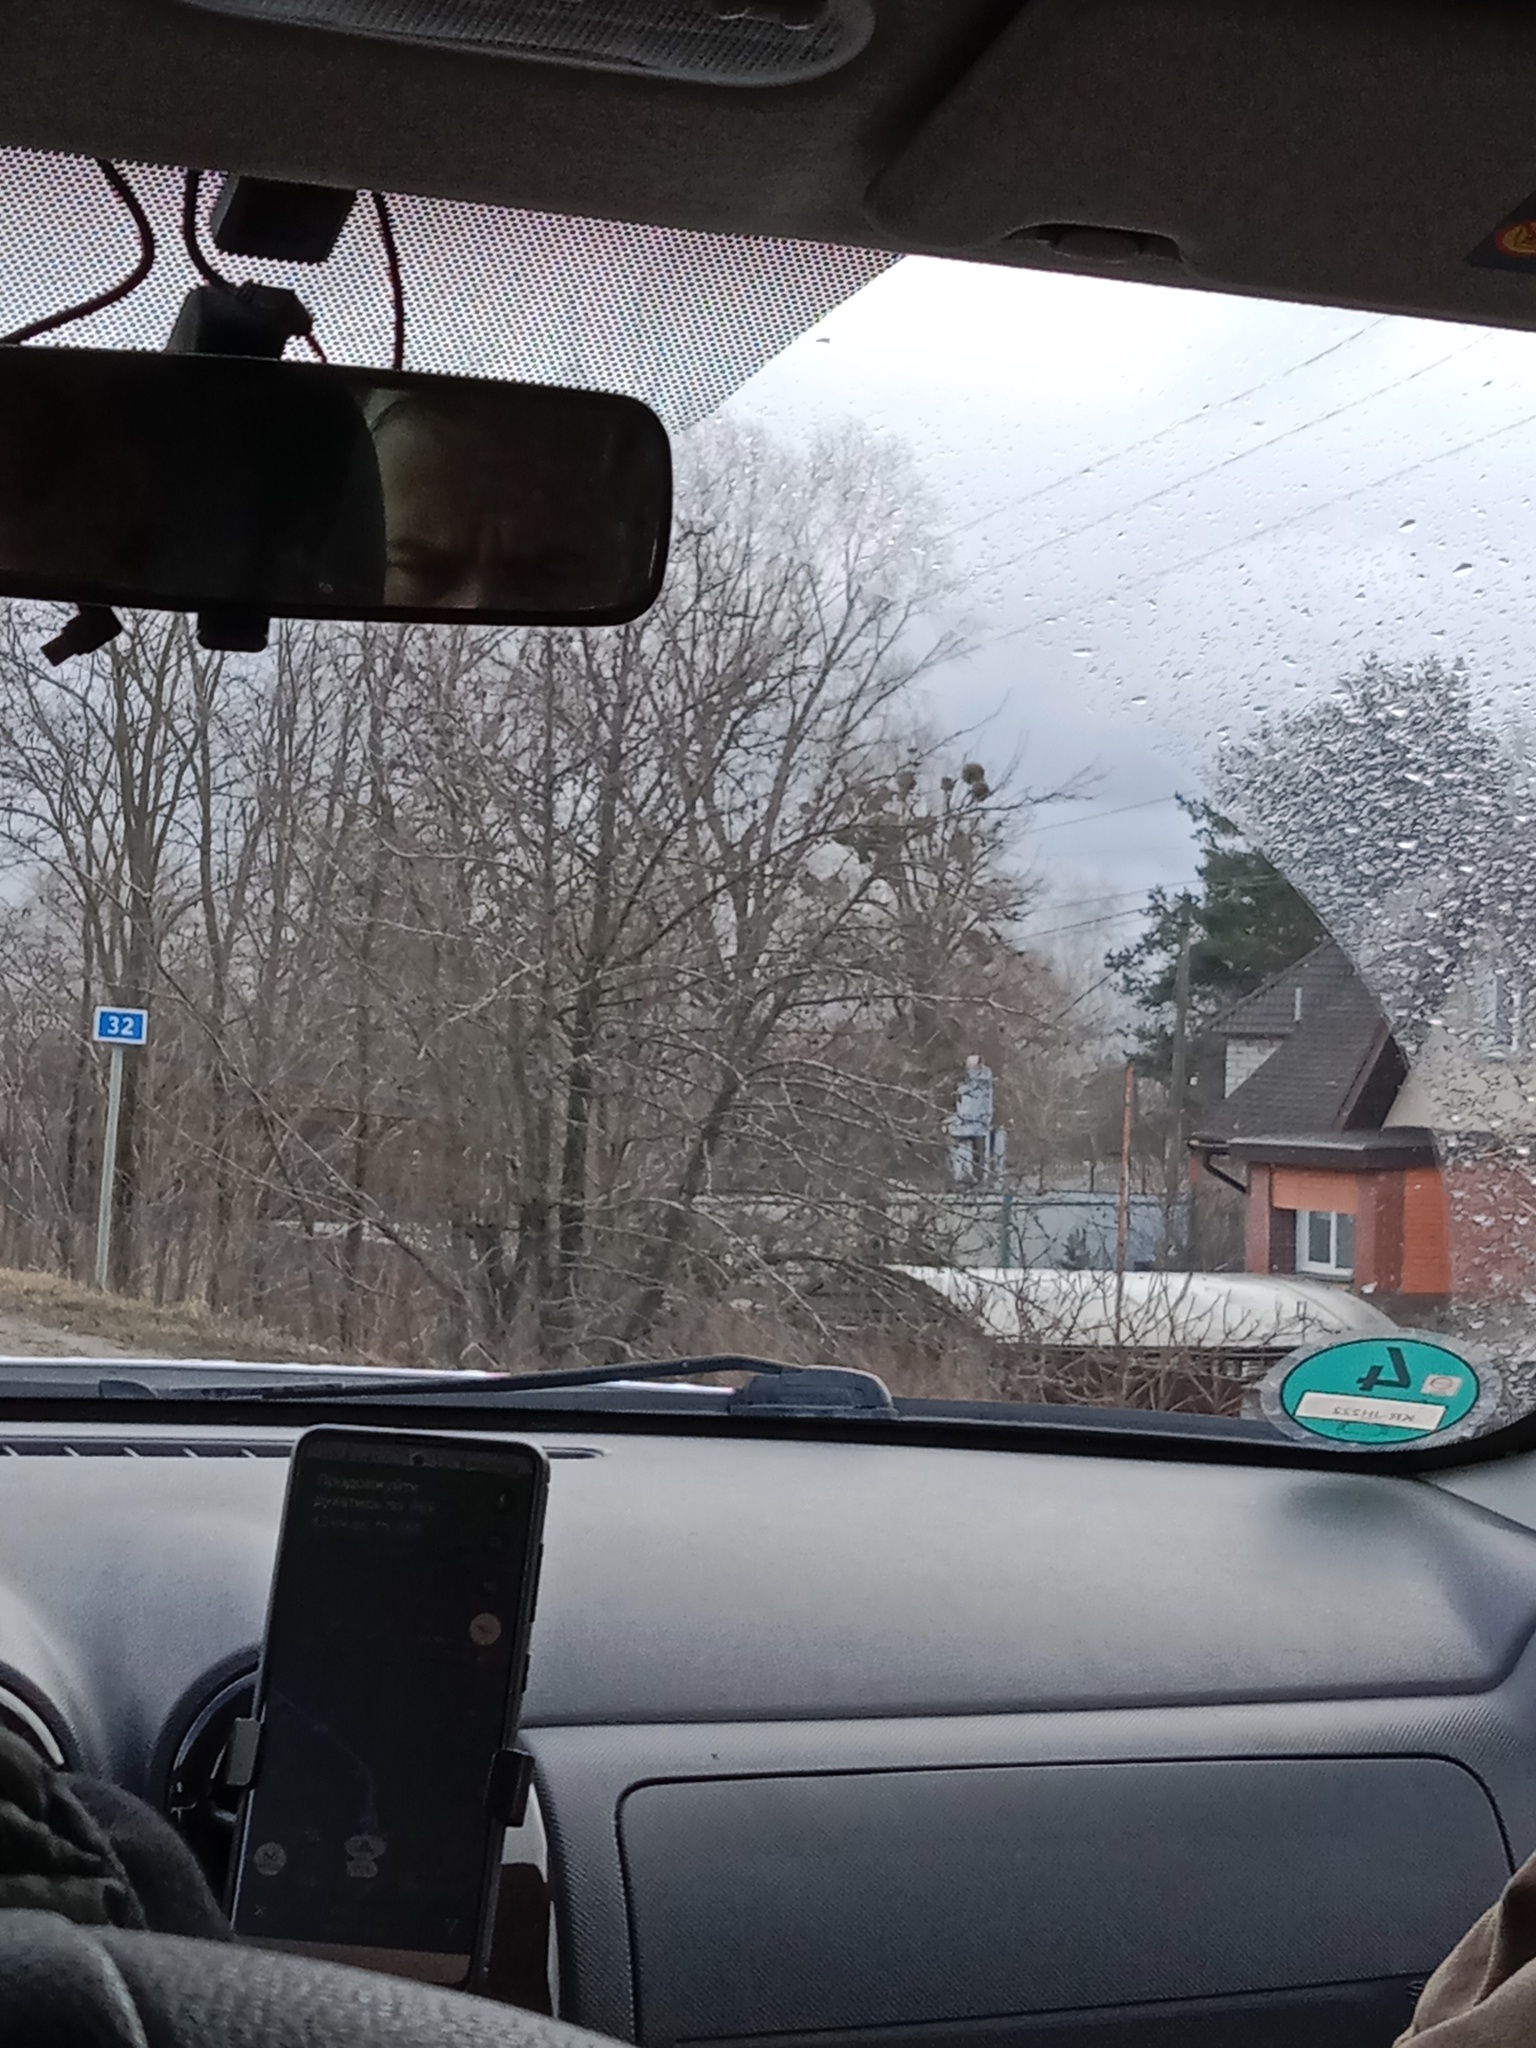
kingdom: Plantae
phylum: Tracheophyta
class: Magnoliopsida
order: Santalales
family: Viscaceae
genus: Viscum
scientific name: Viscum album
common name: Mistletoe
